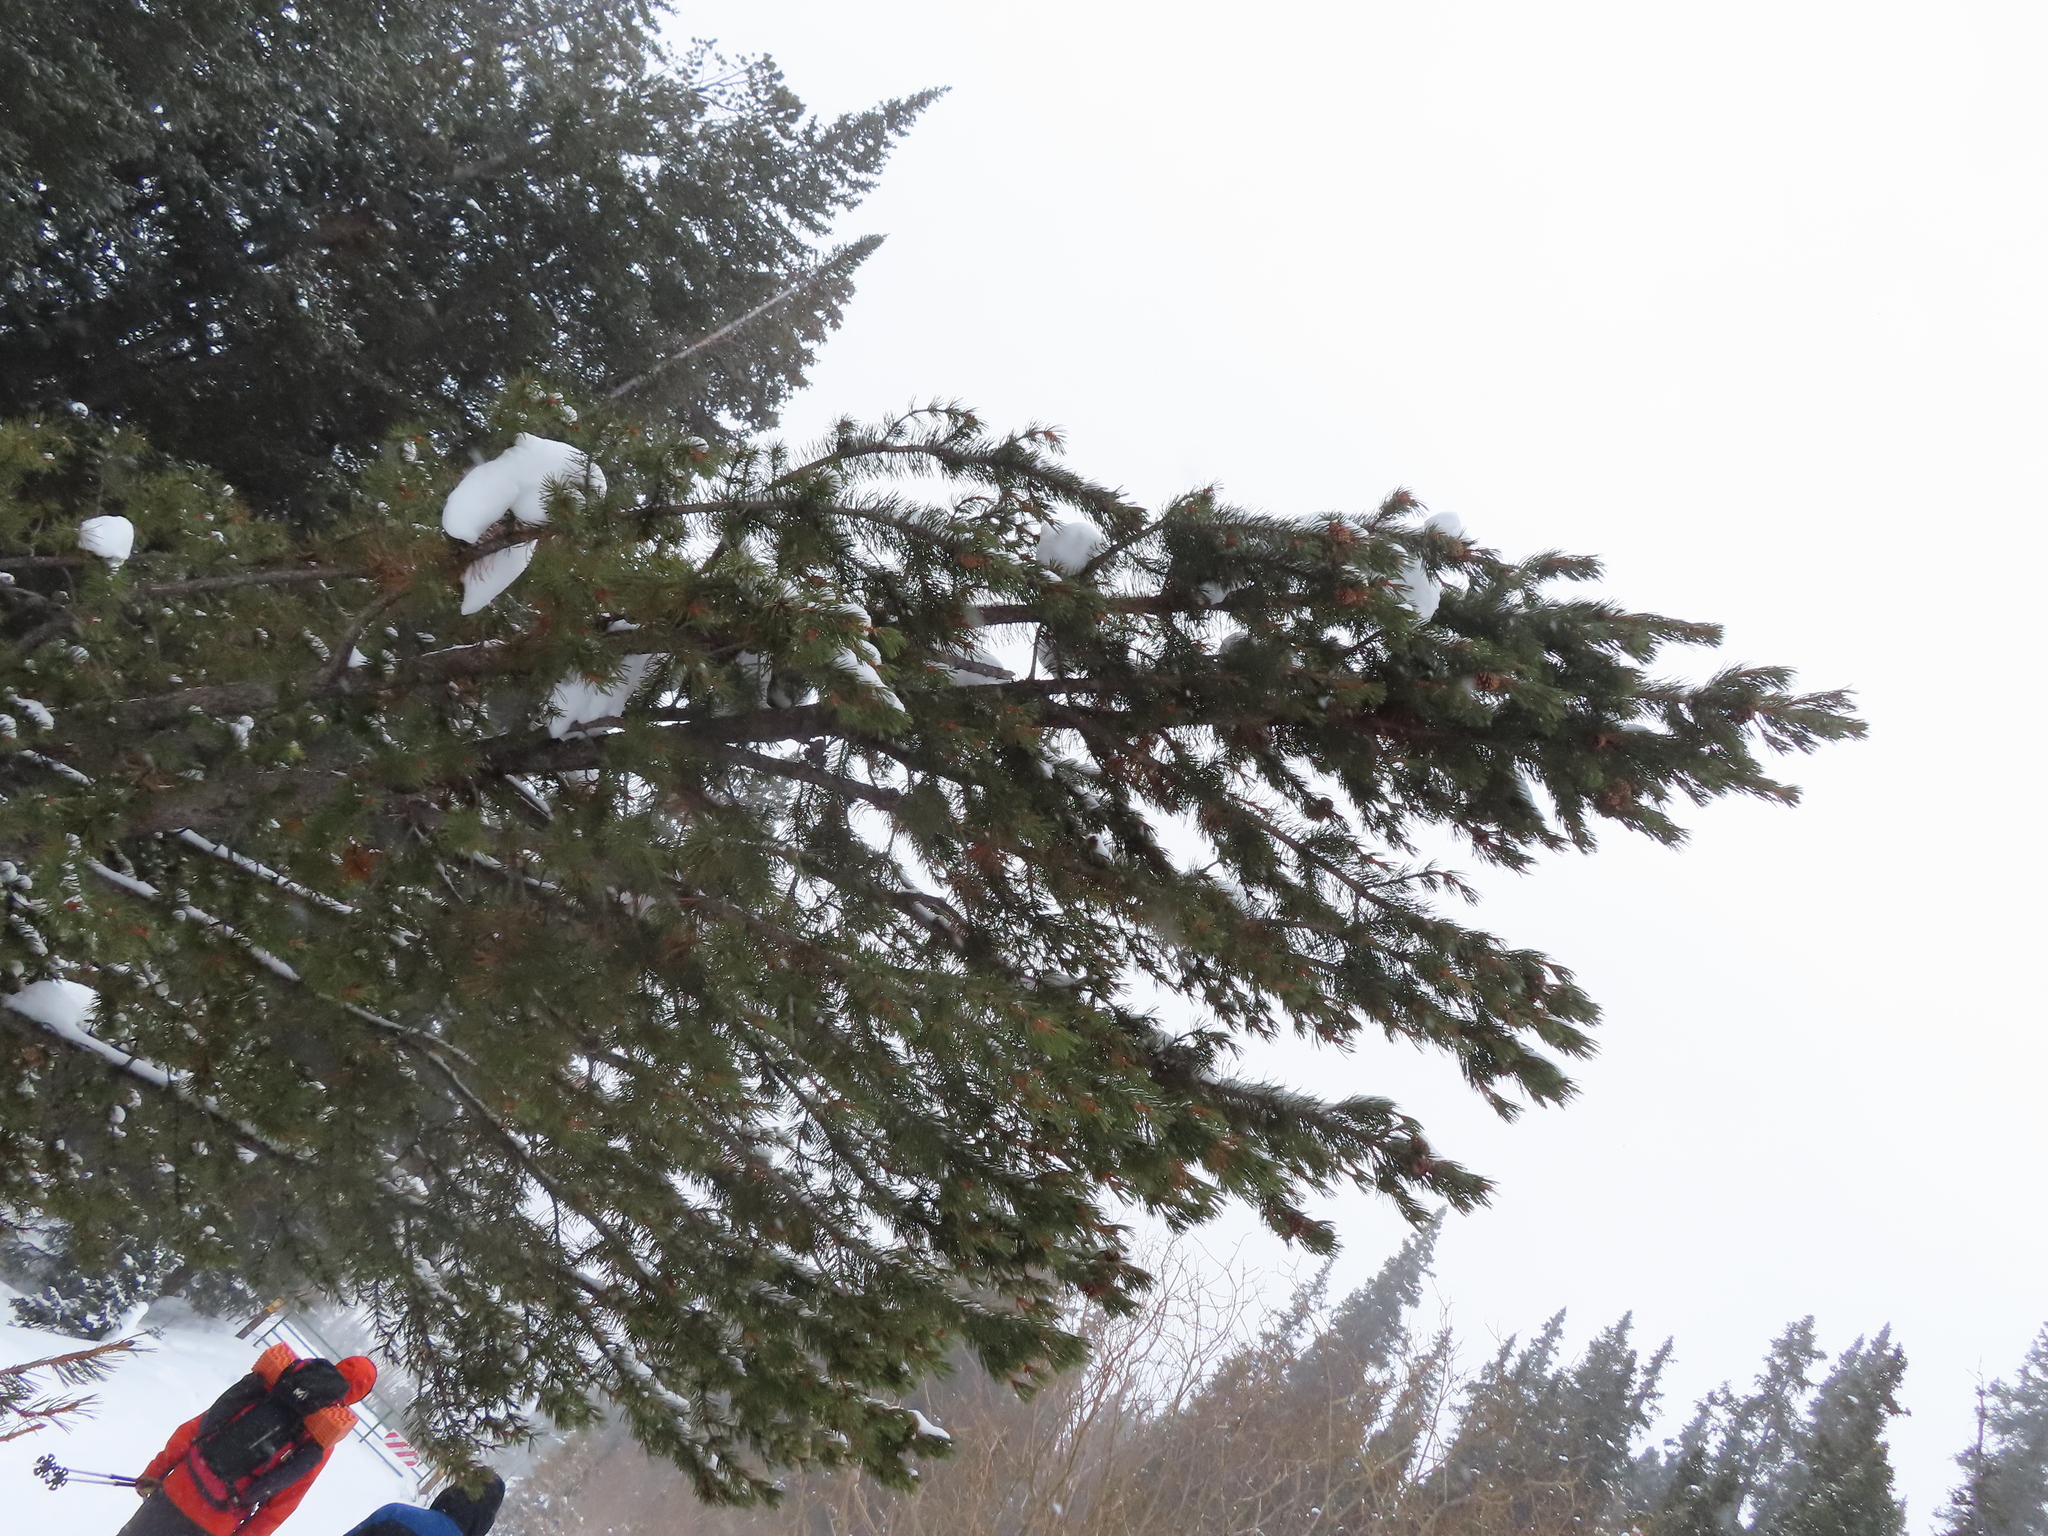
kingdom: Plantae
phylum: Tracheophyta
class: Pinopsida
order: Pinales
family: Pinaceae
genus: Pinus
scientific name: Pinus contorta
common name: Lodgepole pine
